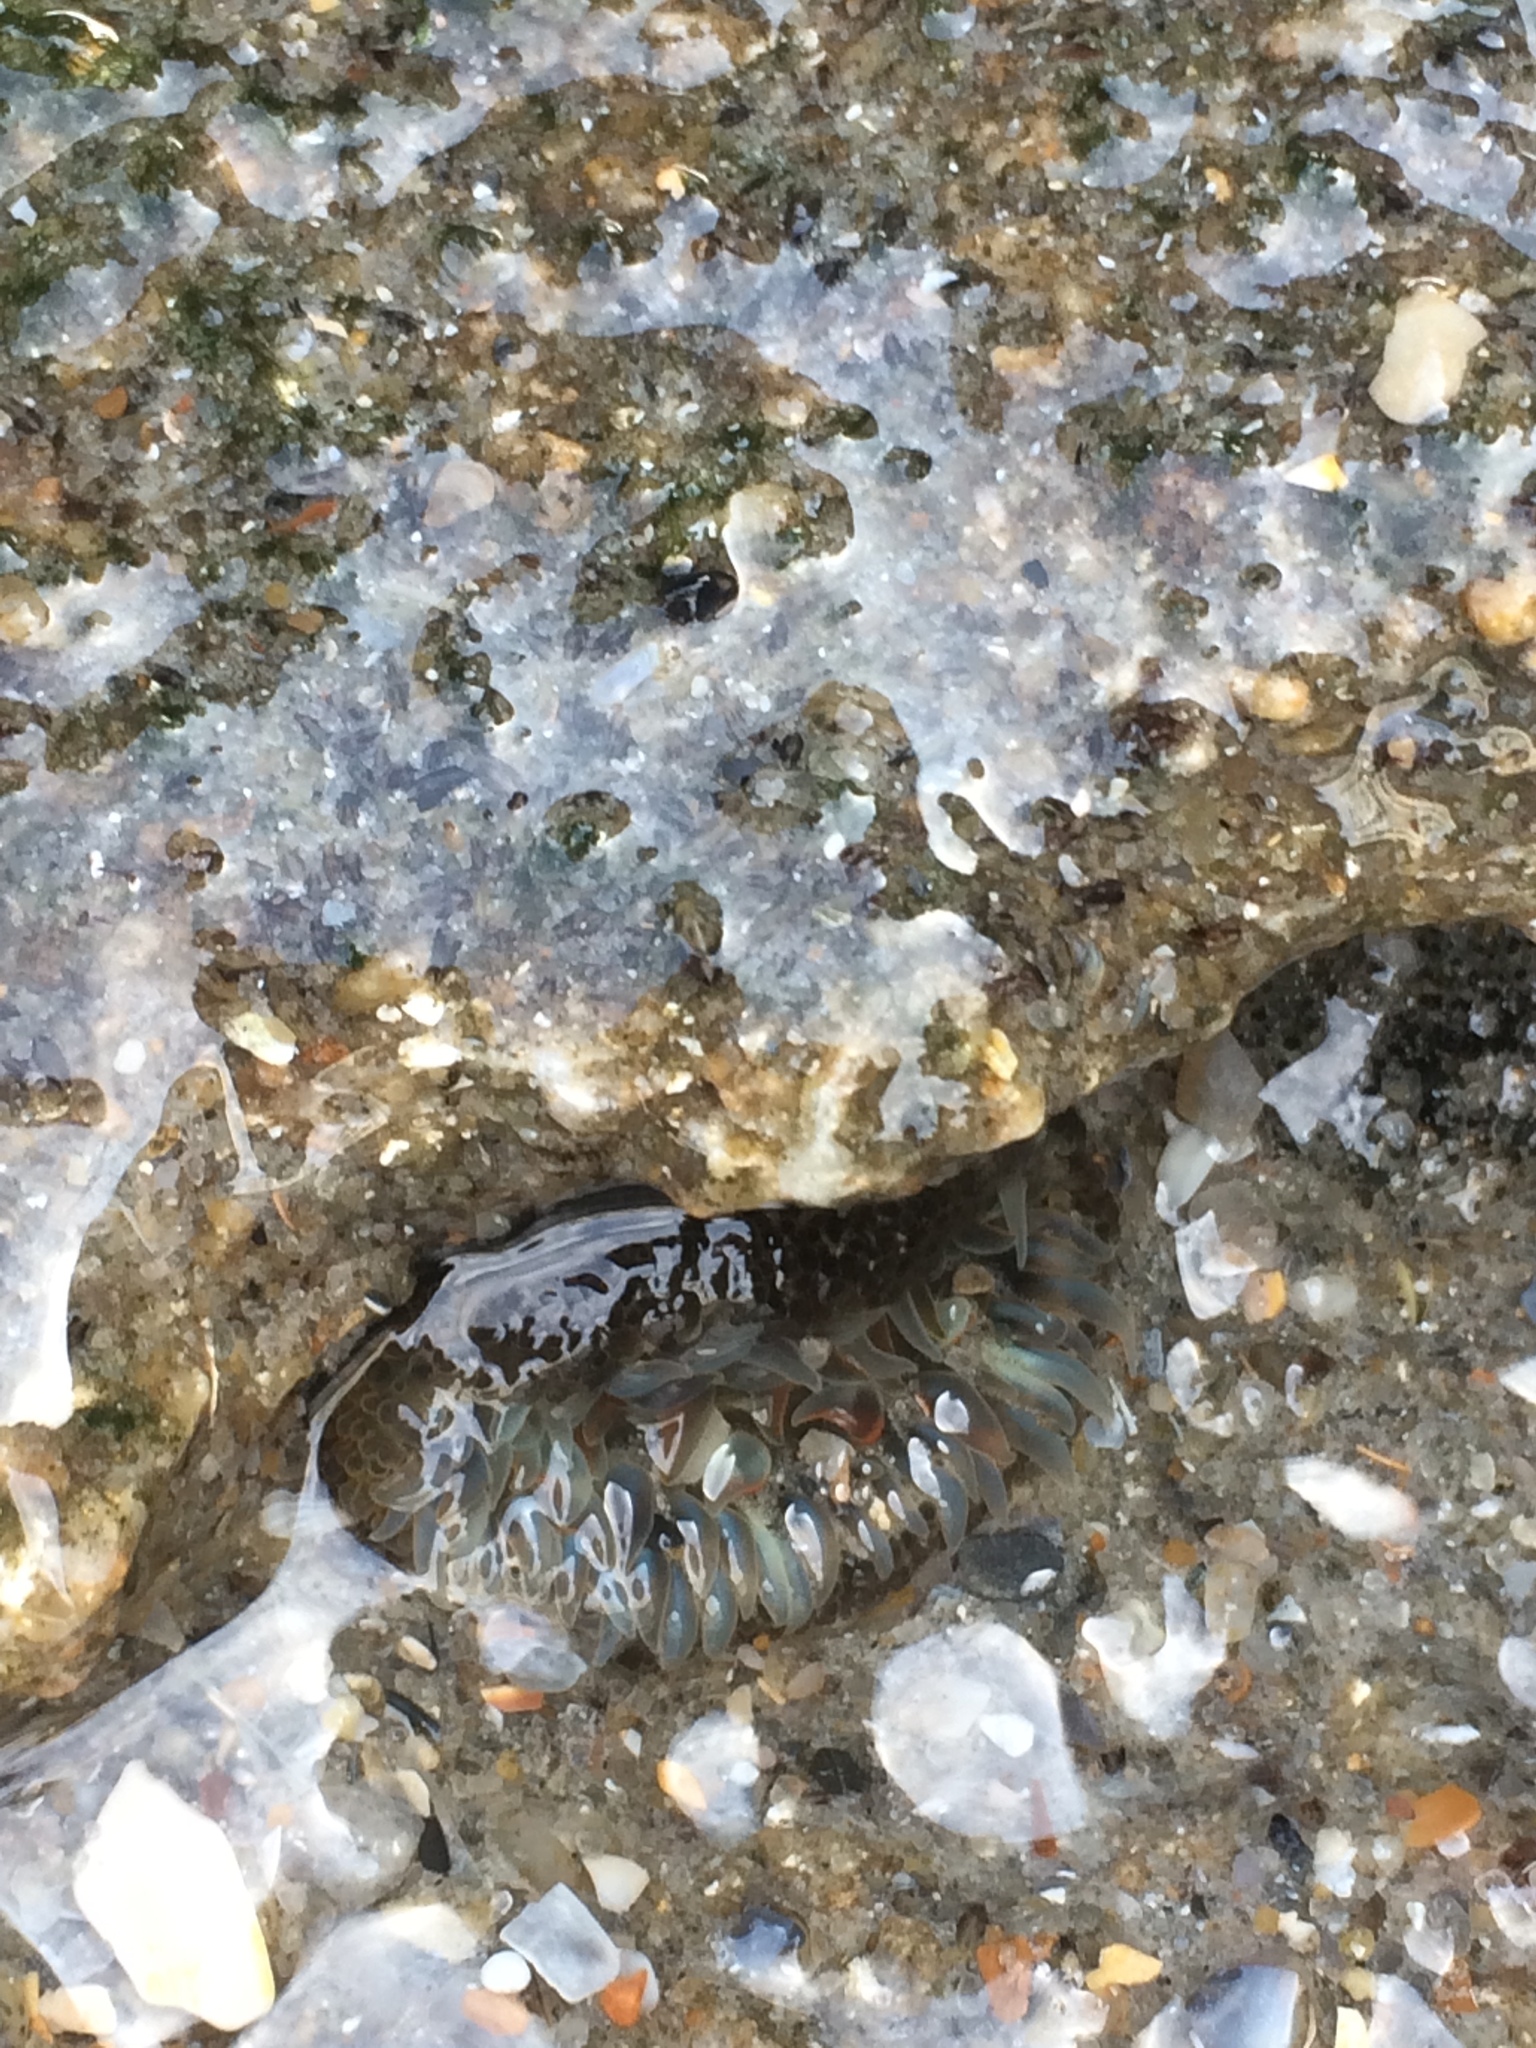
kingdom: Animalia
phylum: Cnidaria
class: Anthozoa
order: Actiniaria
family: Actiniidae
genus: Bunodosoma
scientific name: Bunodosoma cavernatum
